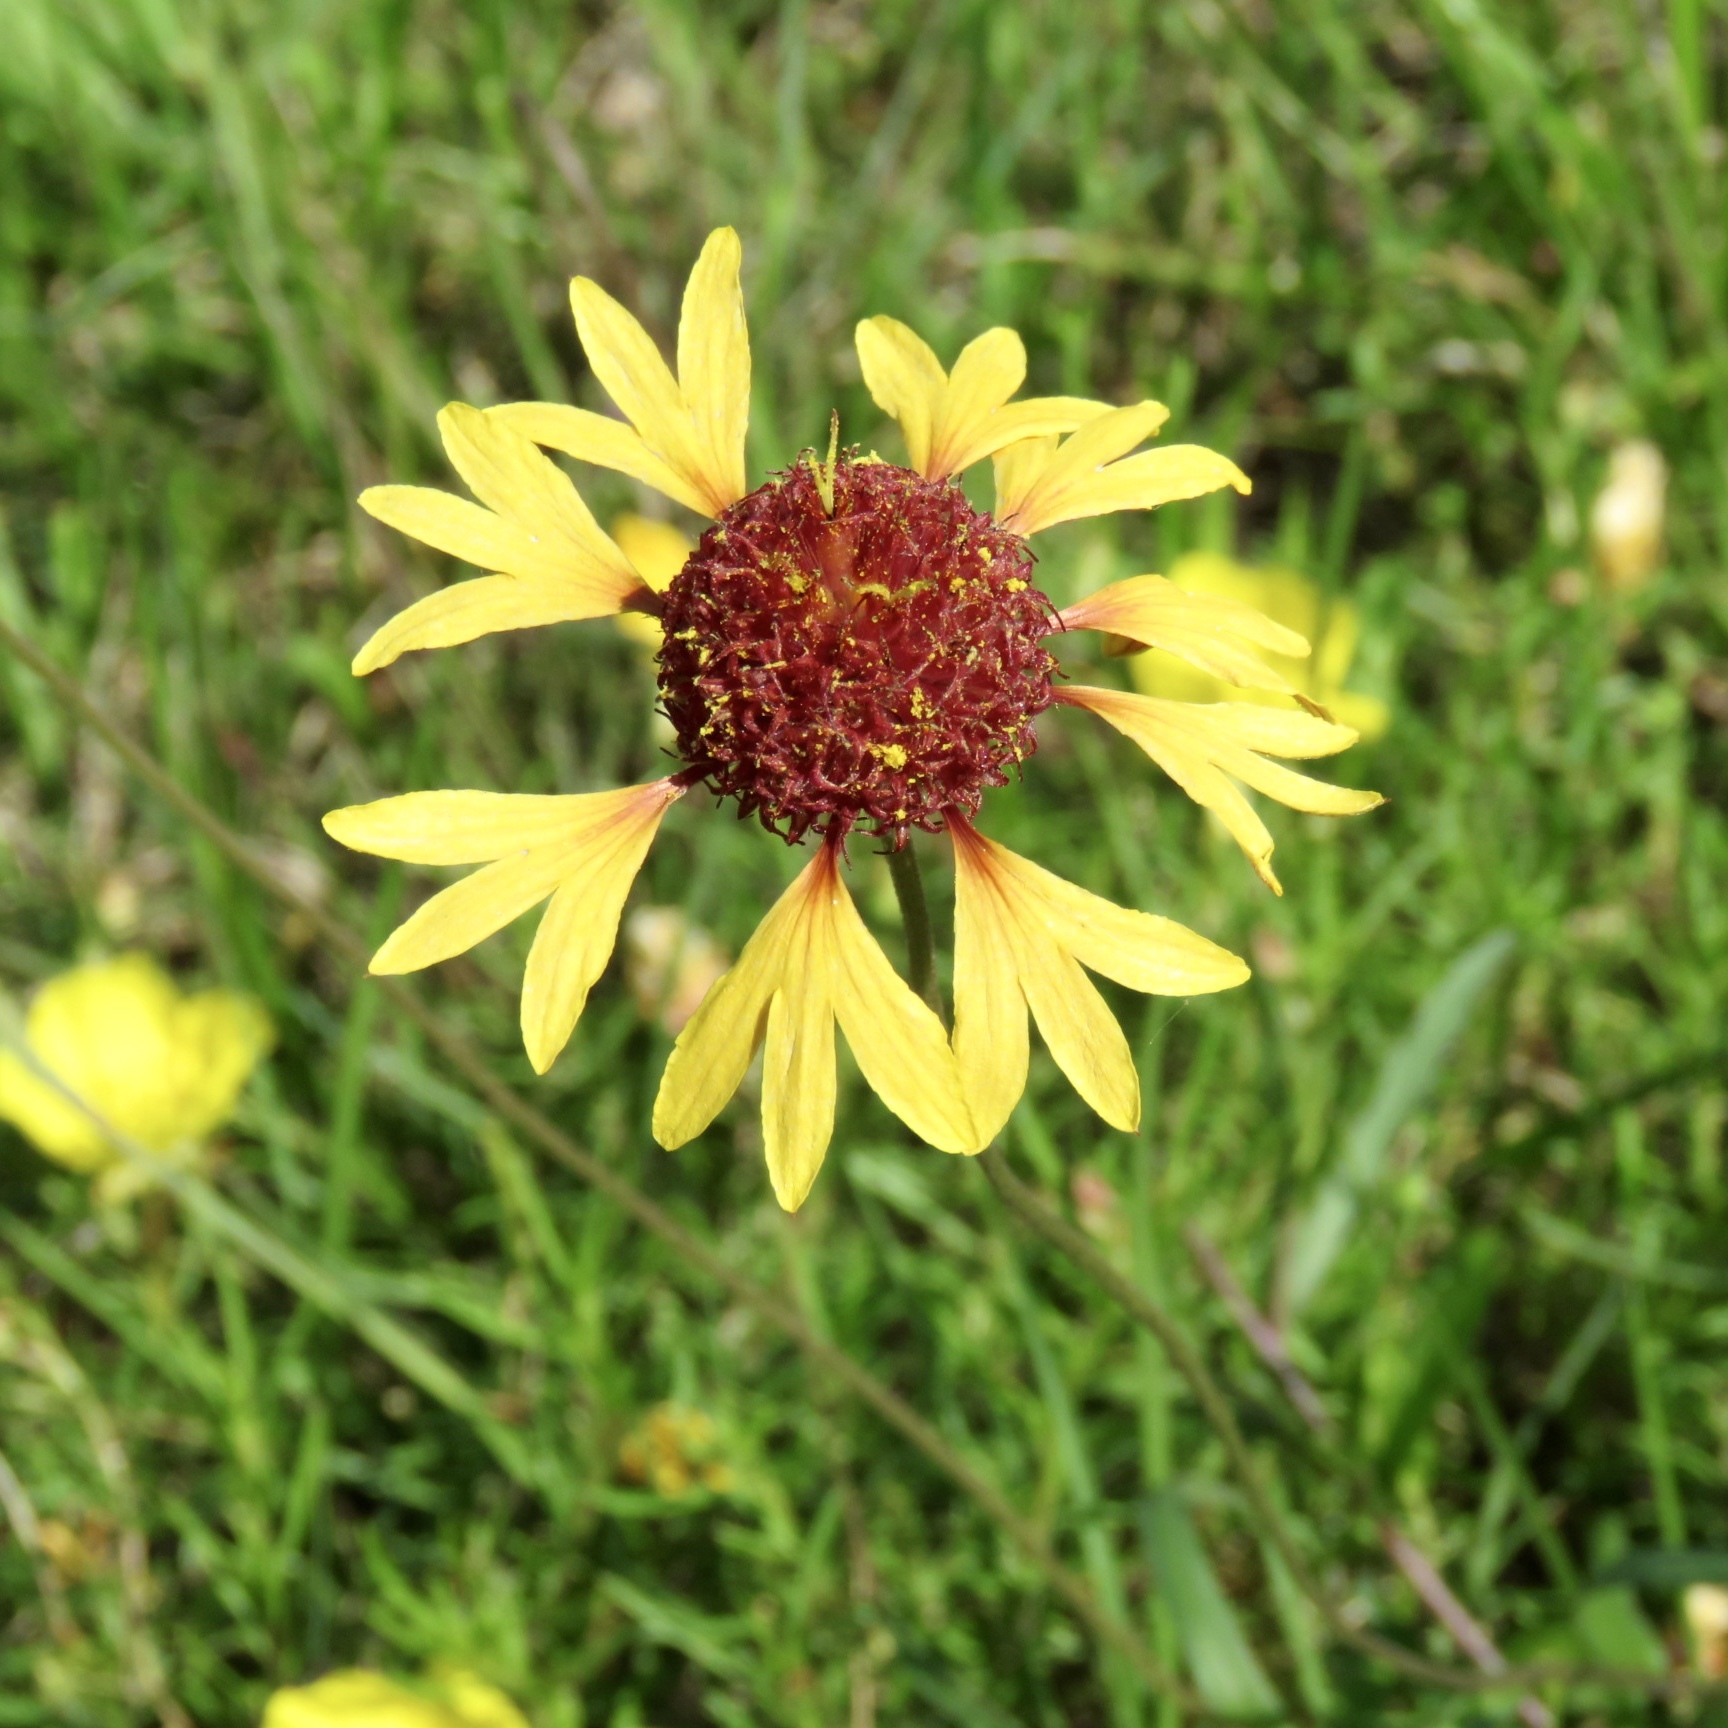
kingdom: Plantae
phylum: Tracheophyta
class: Magnoliopsida
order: Asterales
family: Asteraceae
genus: Gaillardia
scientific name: Gaillardia aestivalis
